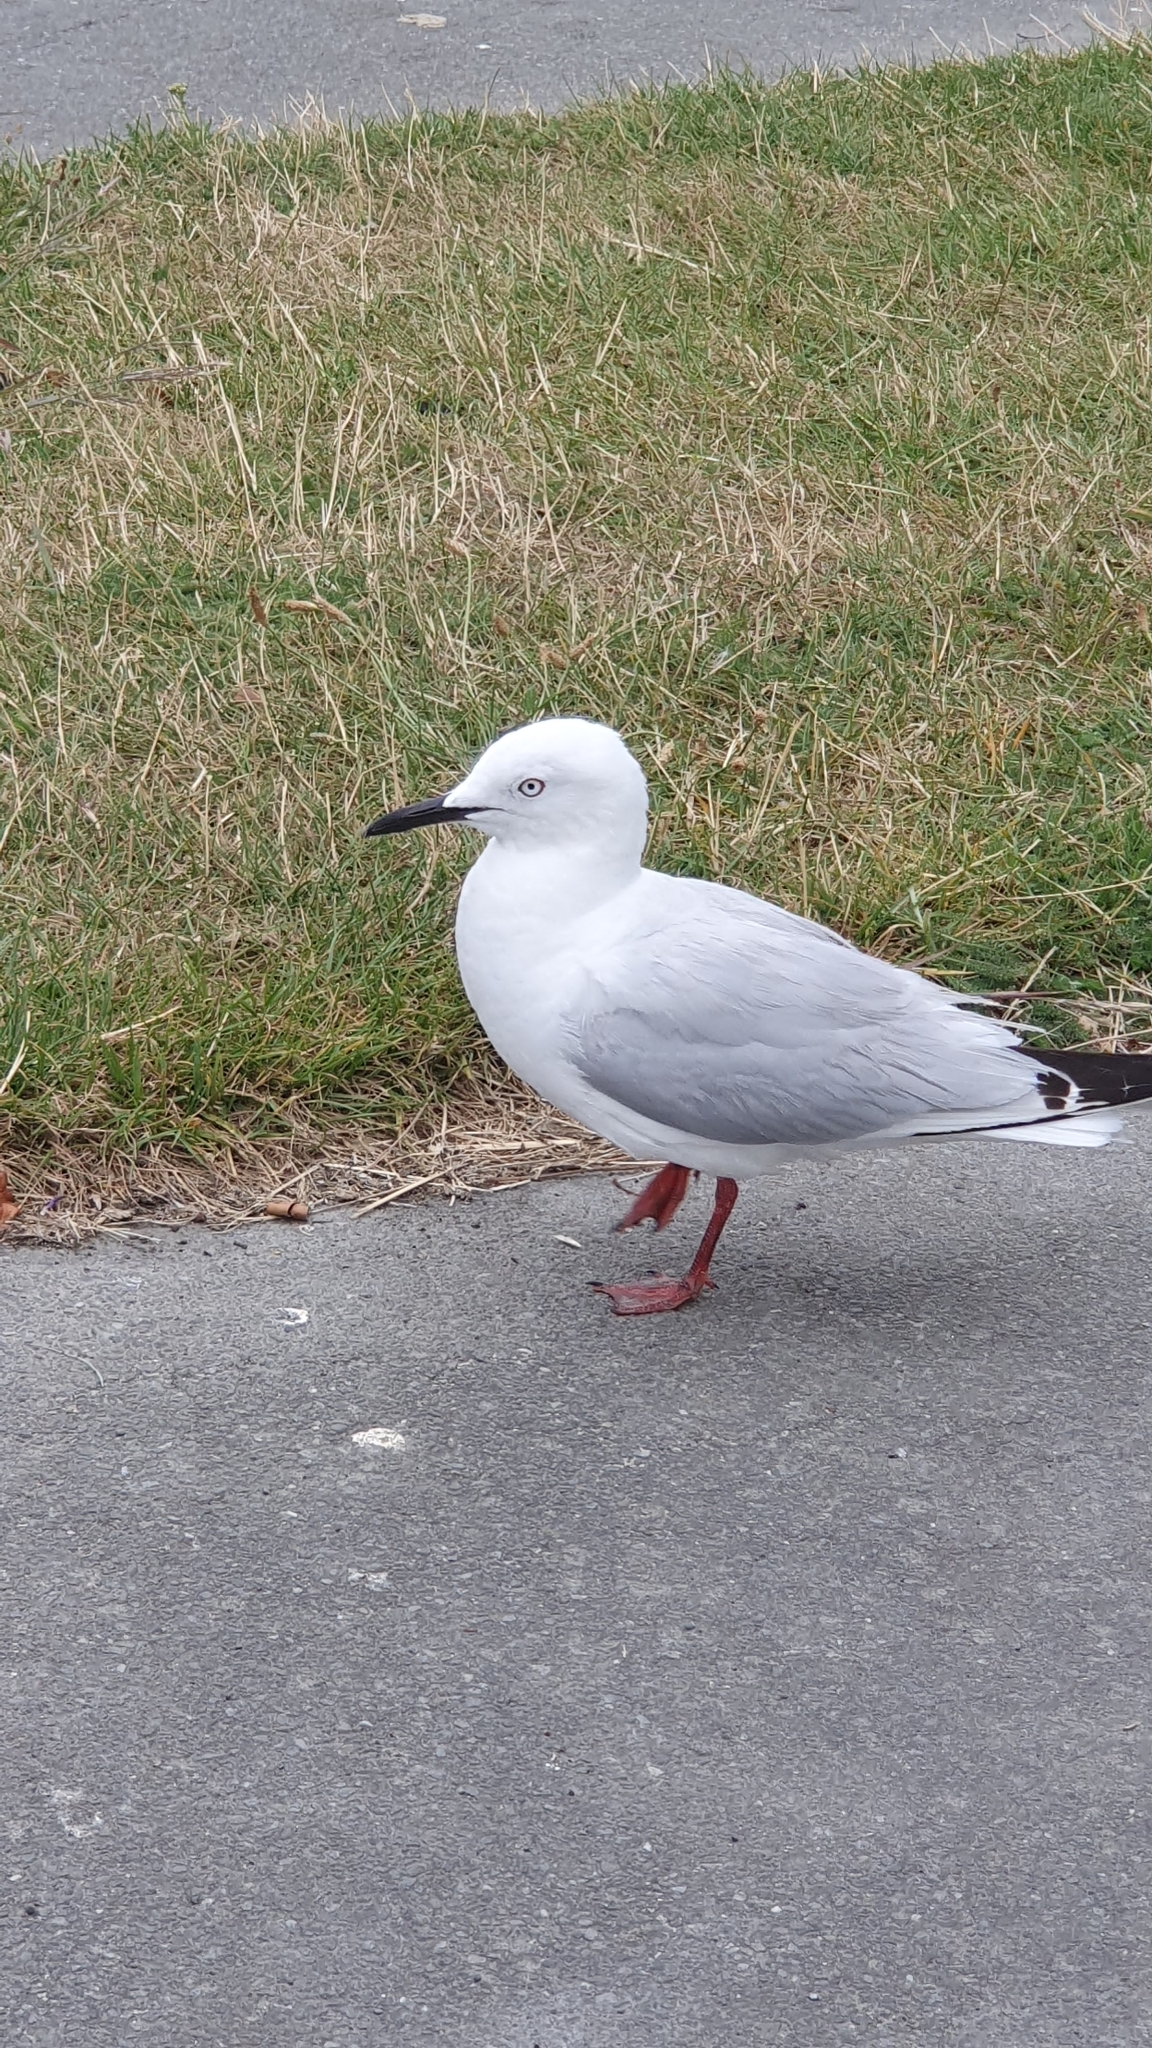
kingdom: Animalia
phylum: Chordata
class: Aves
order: Charadriiformes
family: Laridae
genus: Chroicocephalus
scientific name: Chroicocephalus bulleri
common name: Black-billed gull
